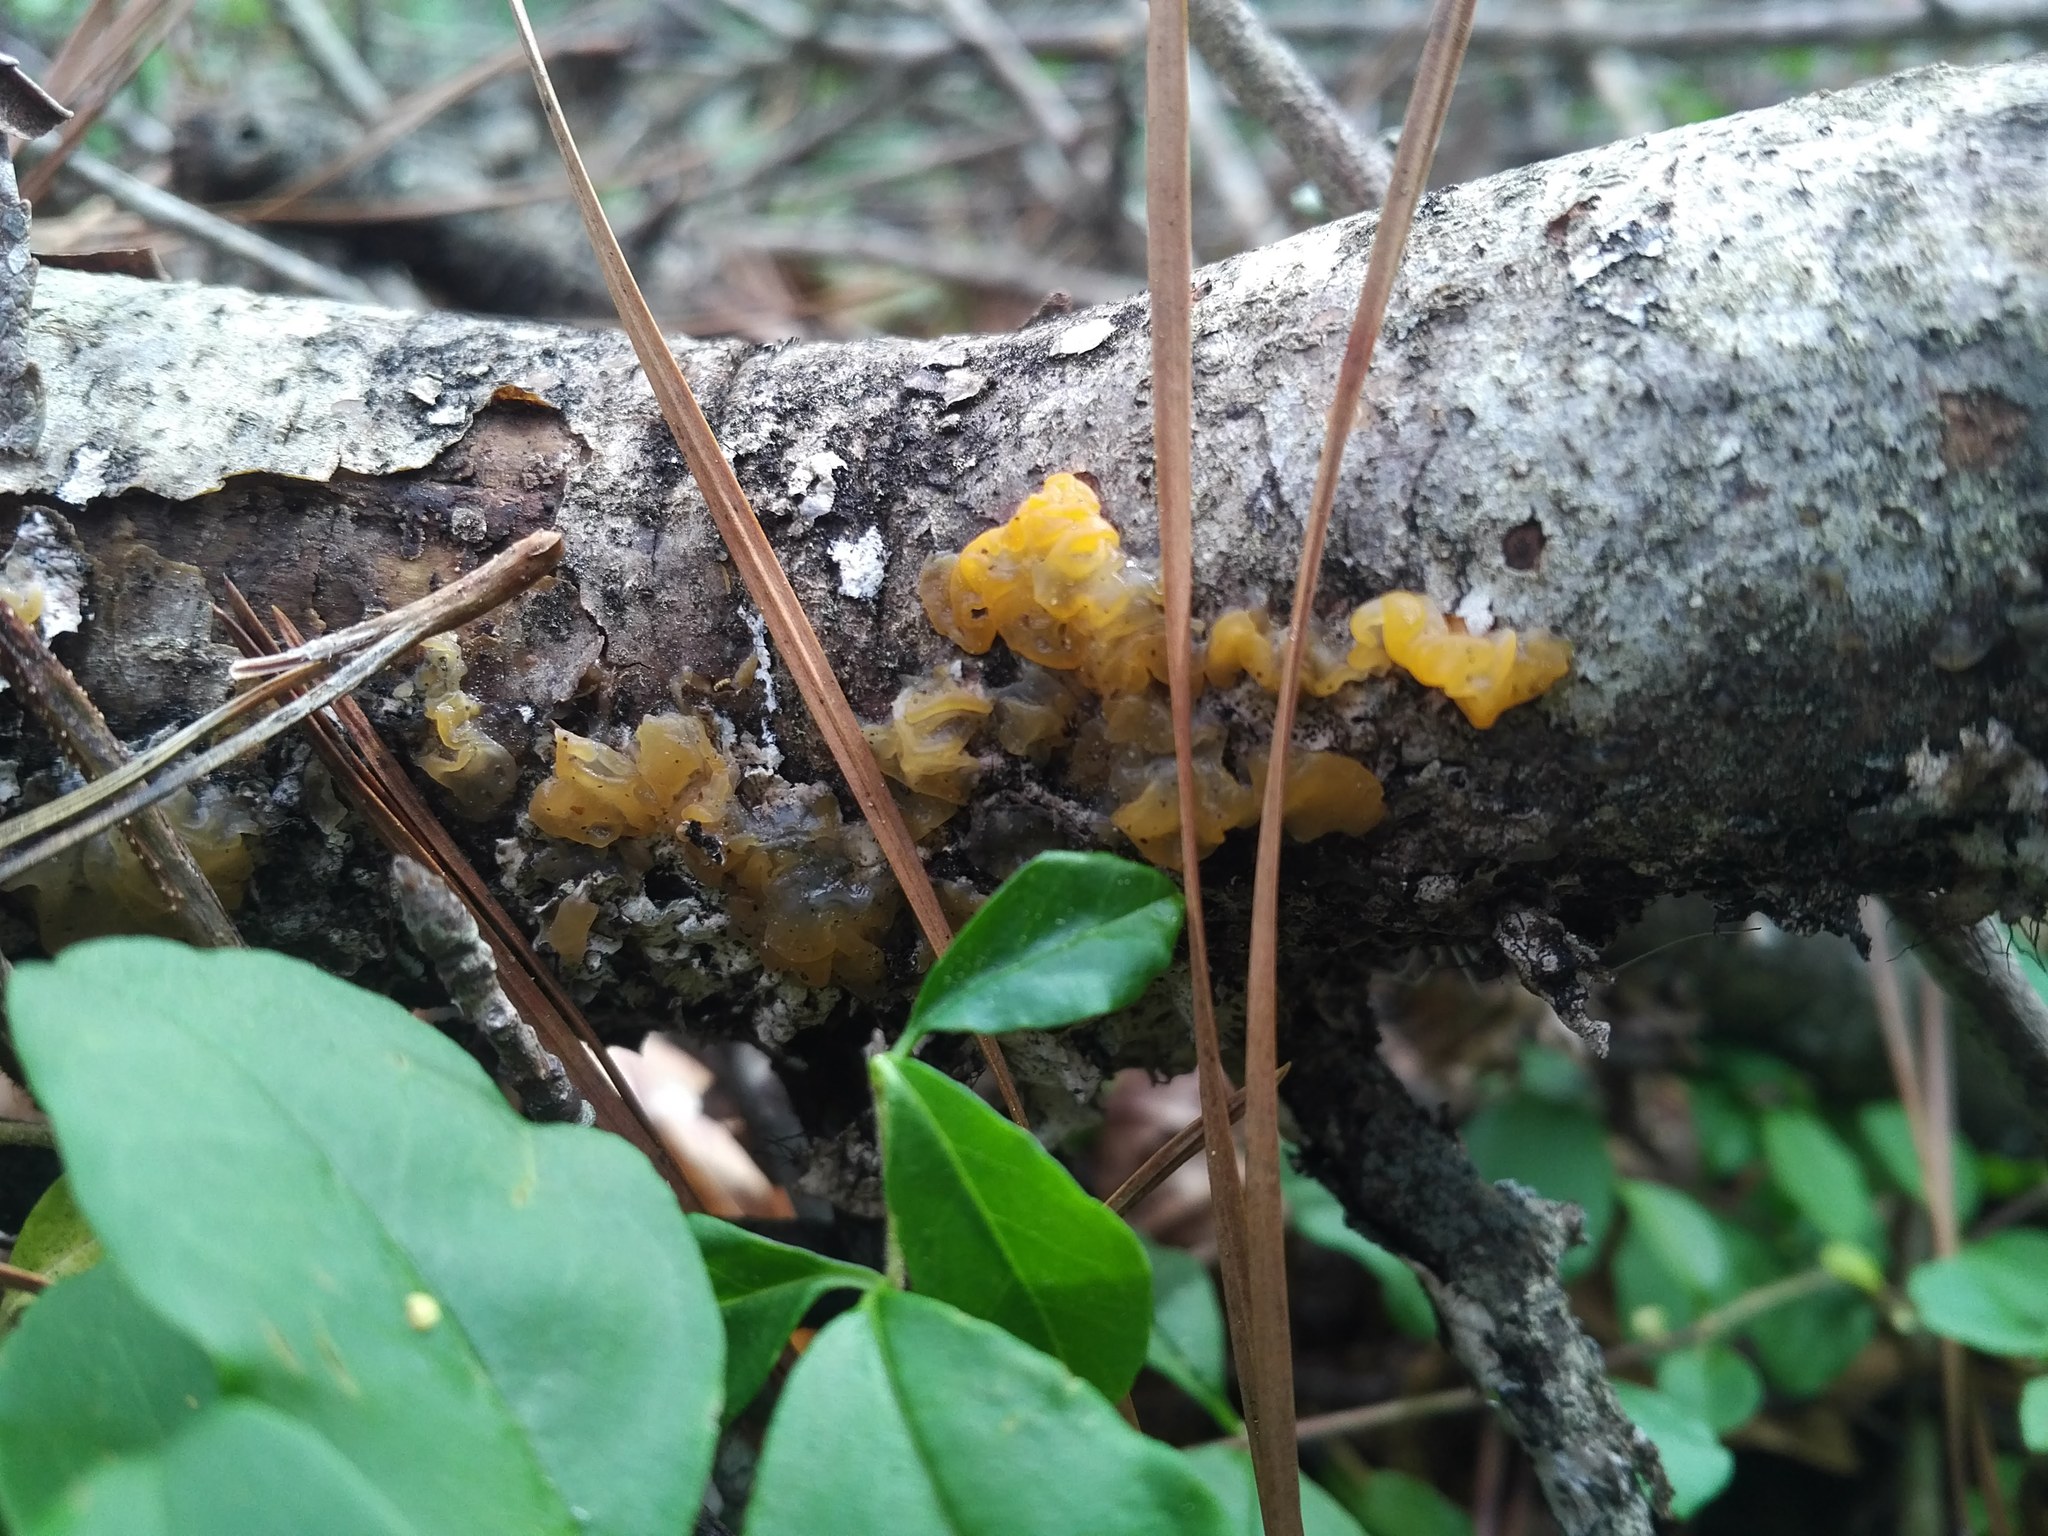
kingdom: Fungi
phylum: Basidiomycota
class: Tremellomycetes
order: Tremellales
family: Tremellaceae
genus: Tremella
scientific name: Tremella mesenterica
